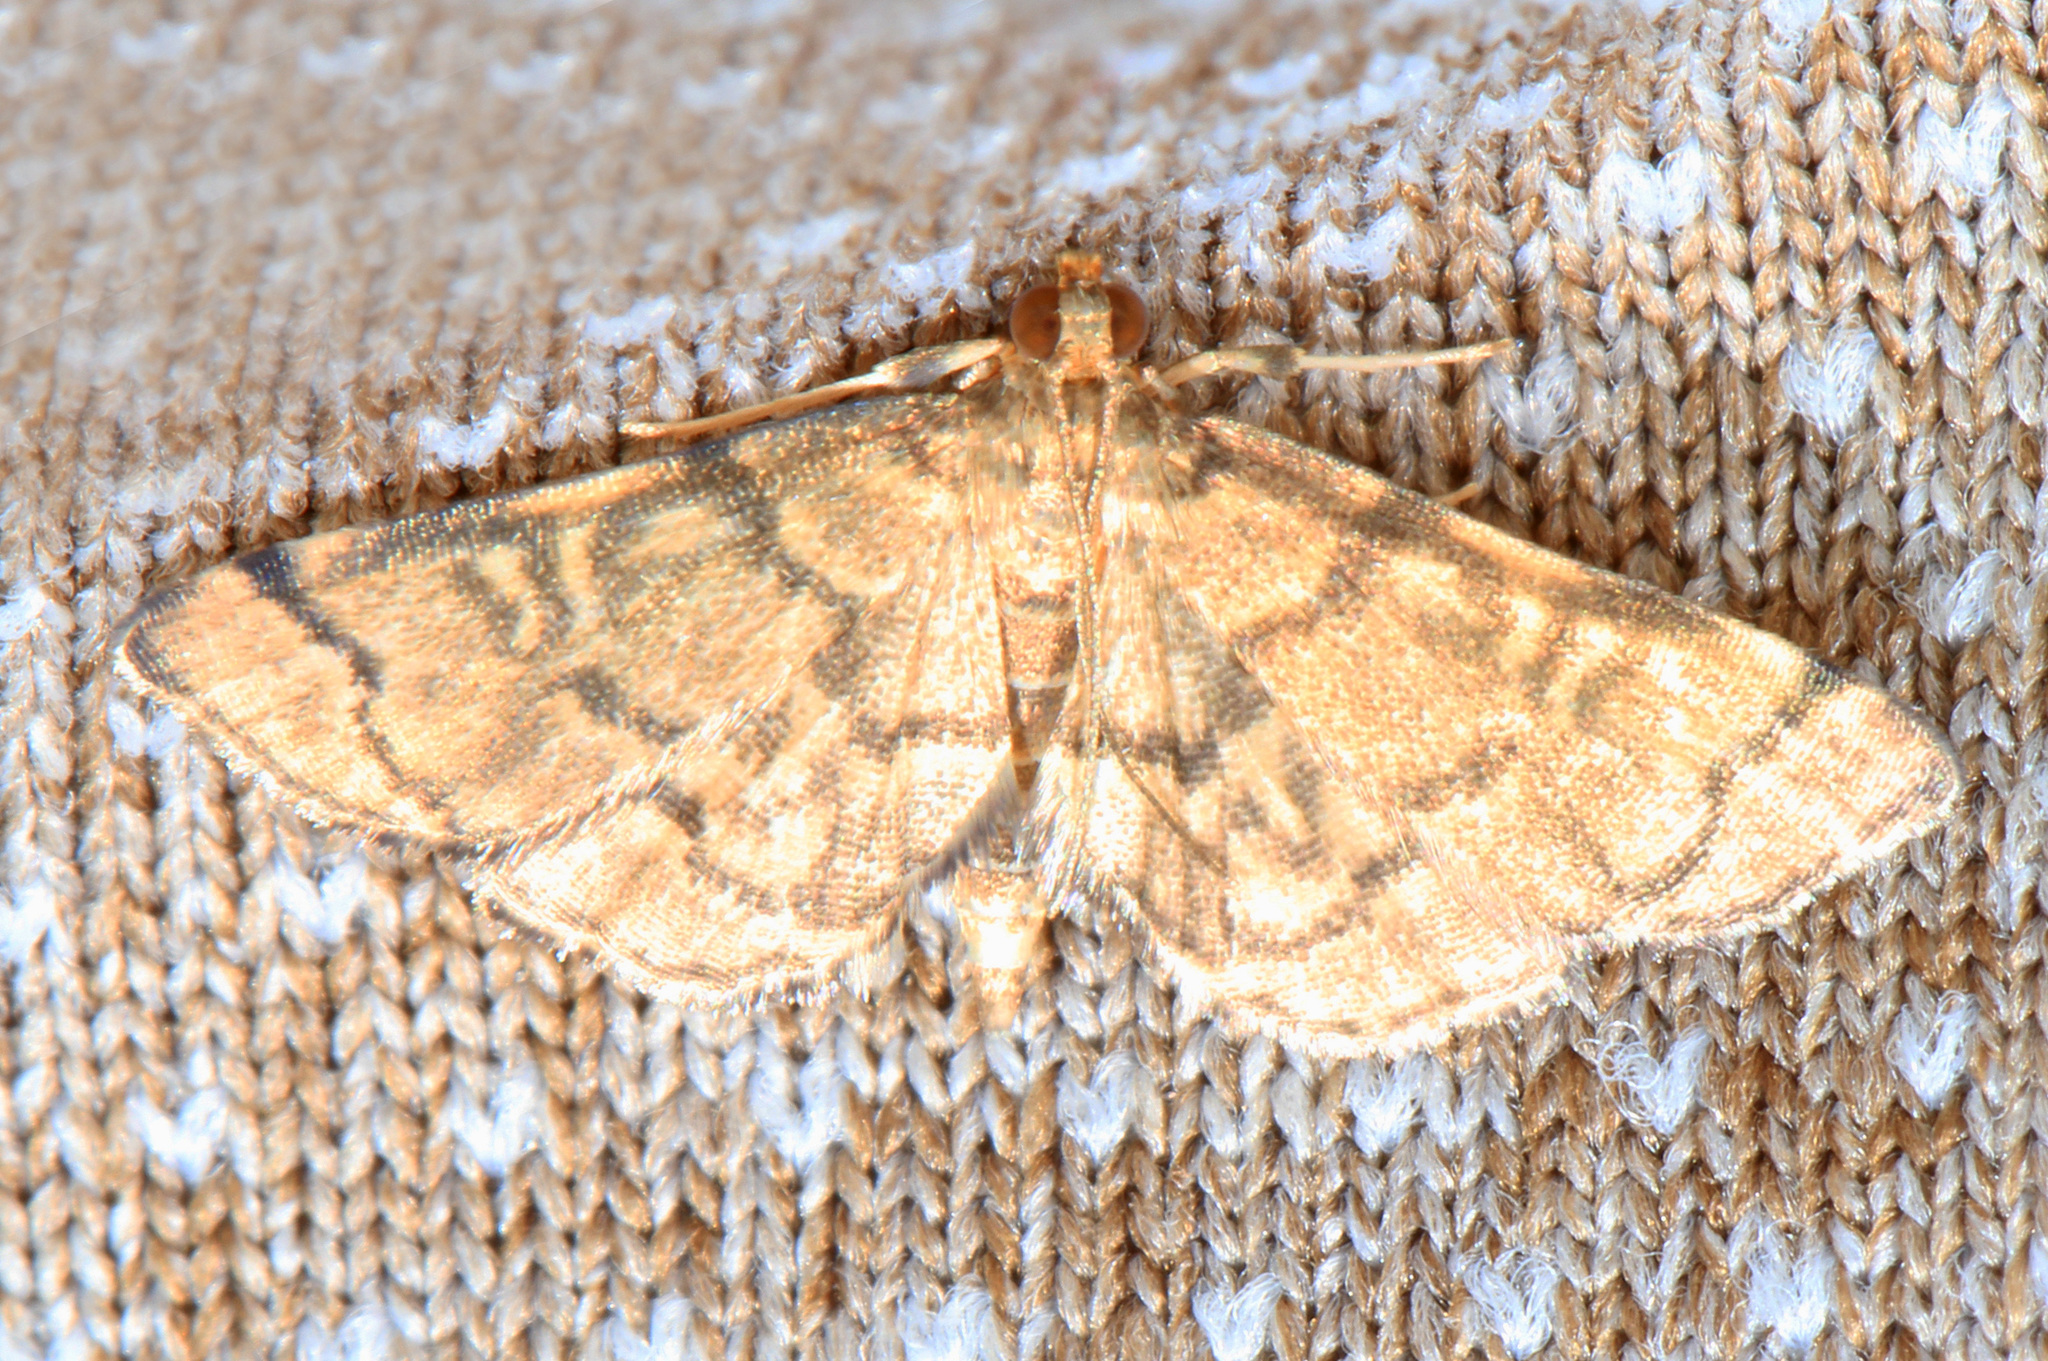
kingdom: Animalia
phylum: Arthropoda
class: Insecta
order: Lepidoptera
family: Crambidae
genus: Anageshna
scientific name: Anageshna primordialis
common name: Yellow-spotted webworm moth
